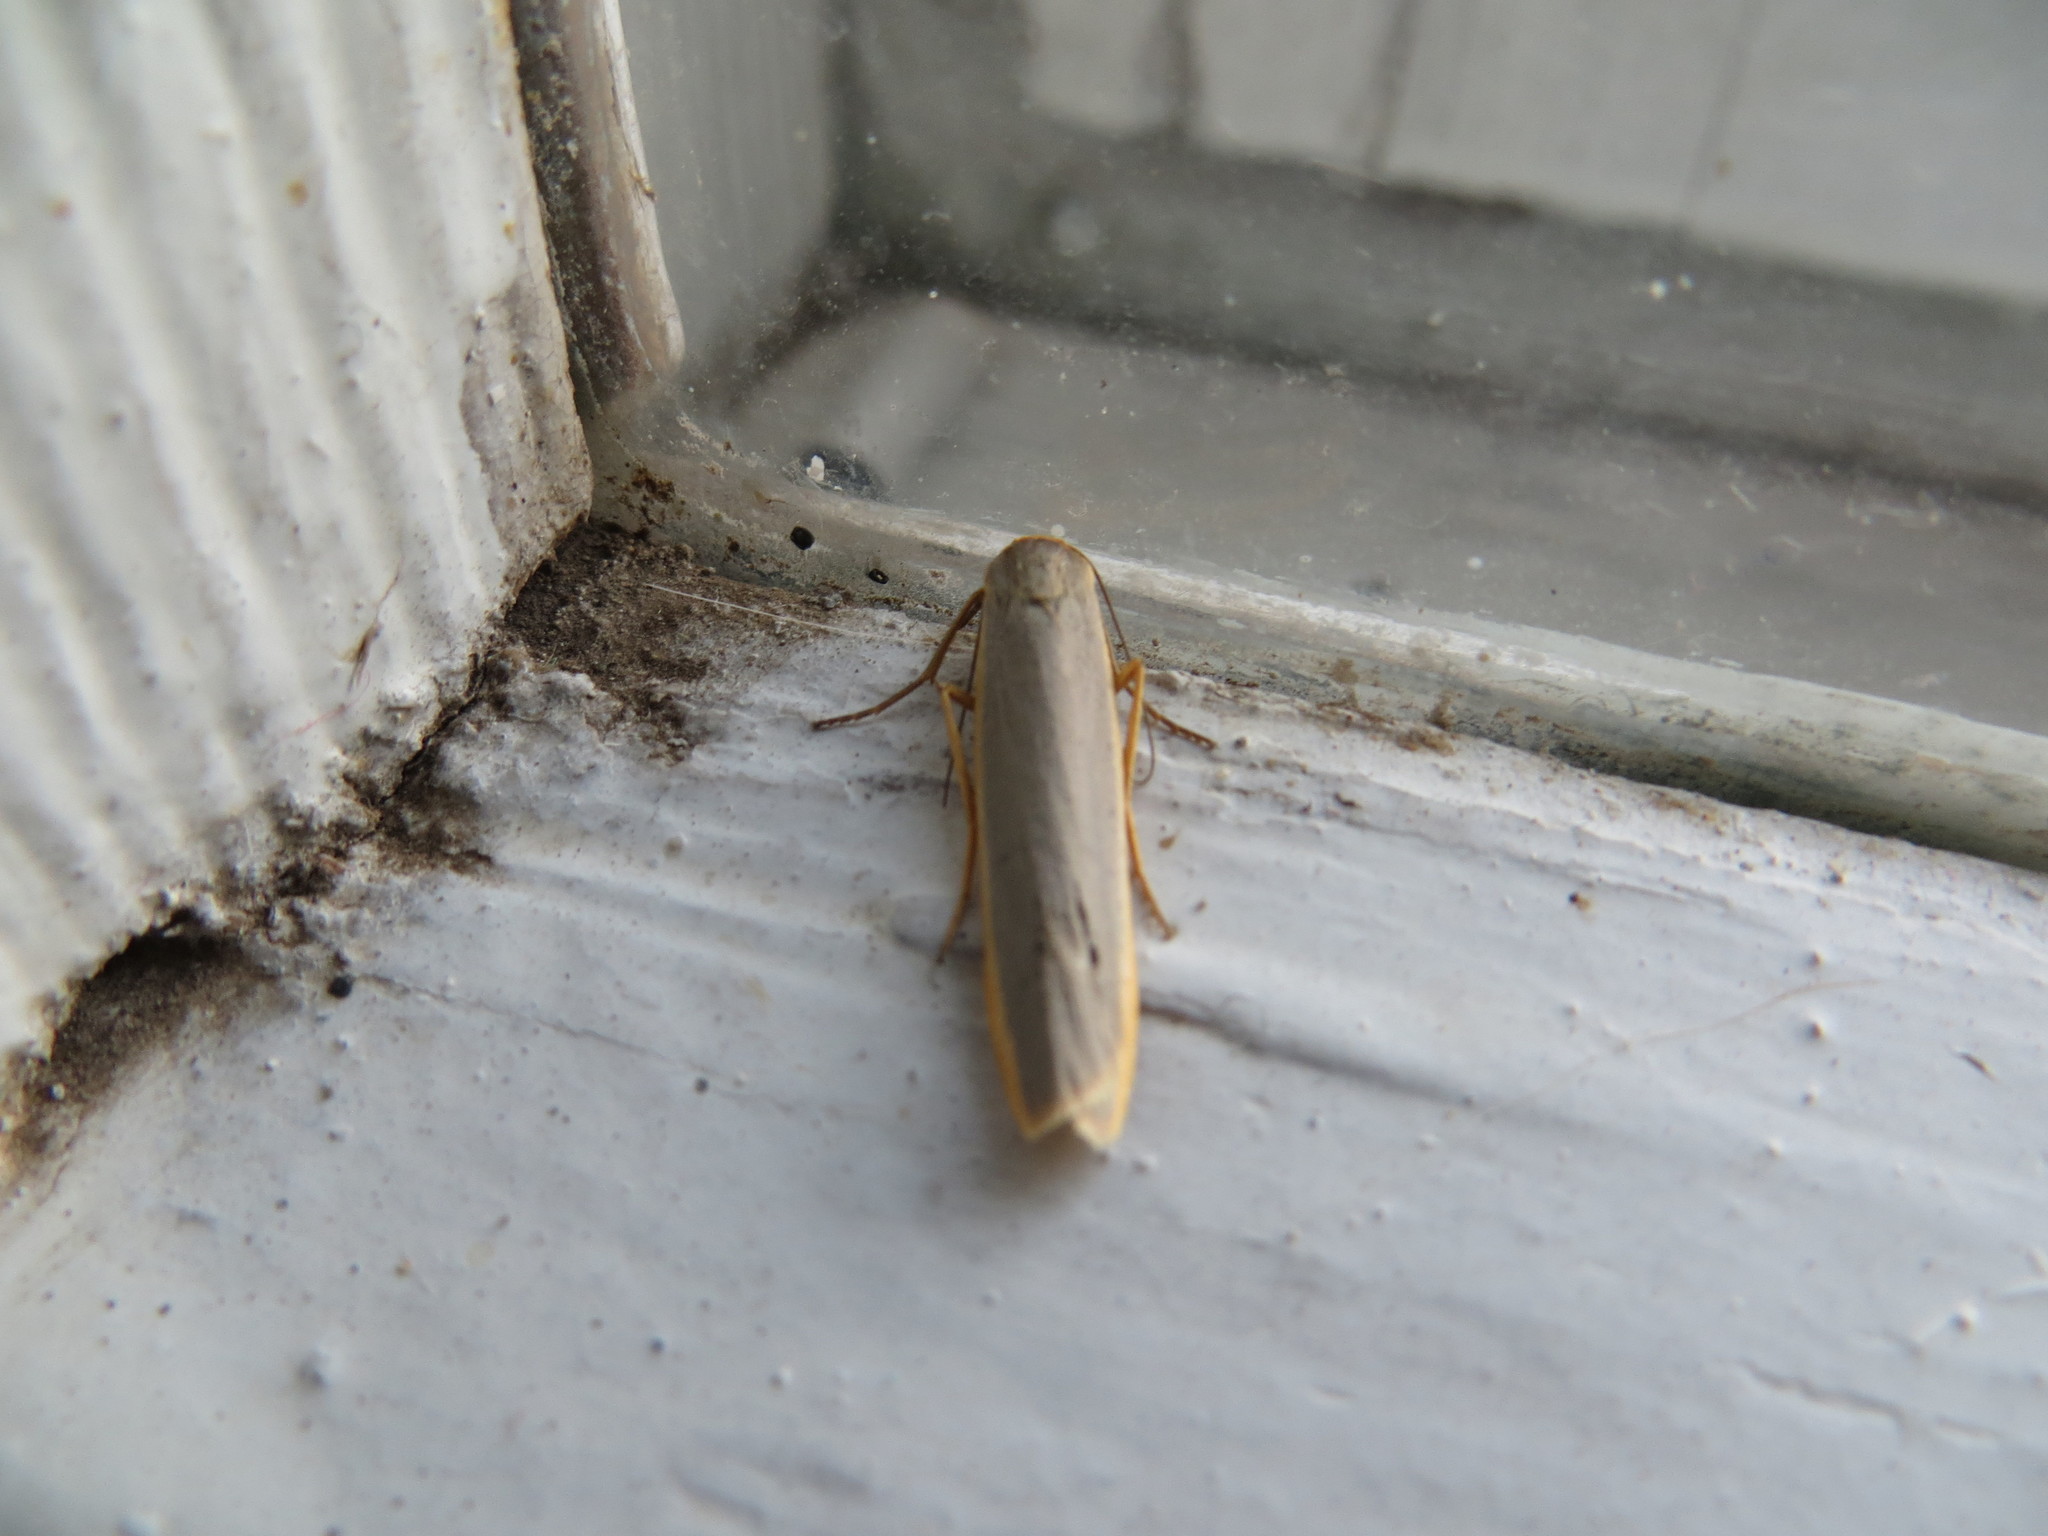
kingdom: Animalia
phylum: Arthropoda
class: Insecta
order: Lepidoptera
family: Erebidae
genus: Manulea
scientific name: Manulea complana
